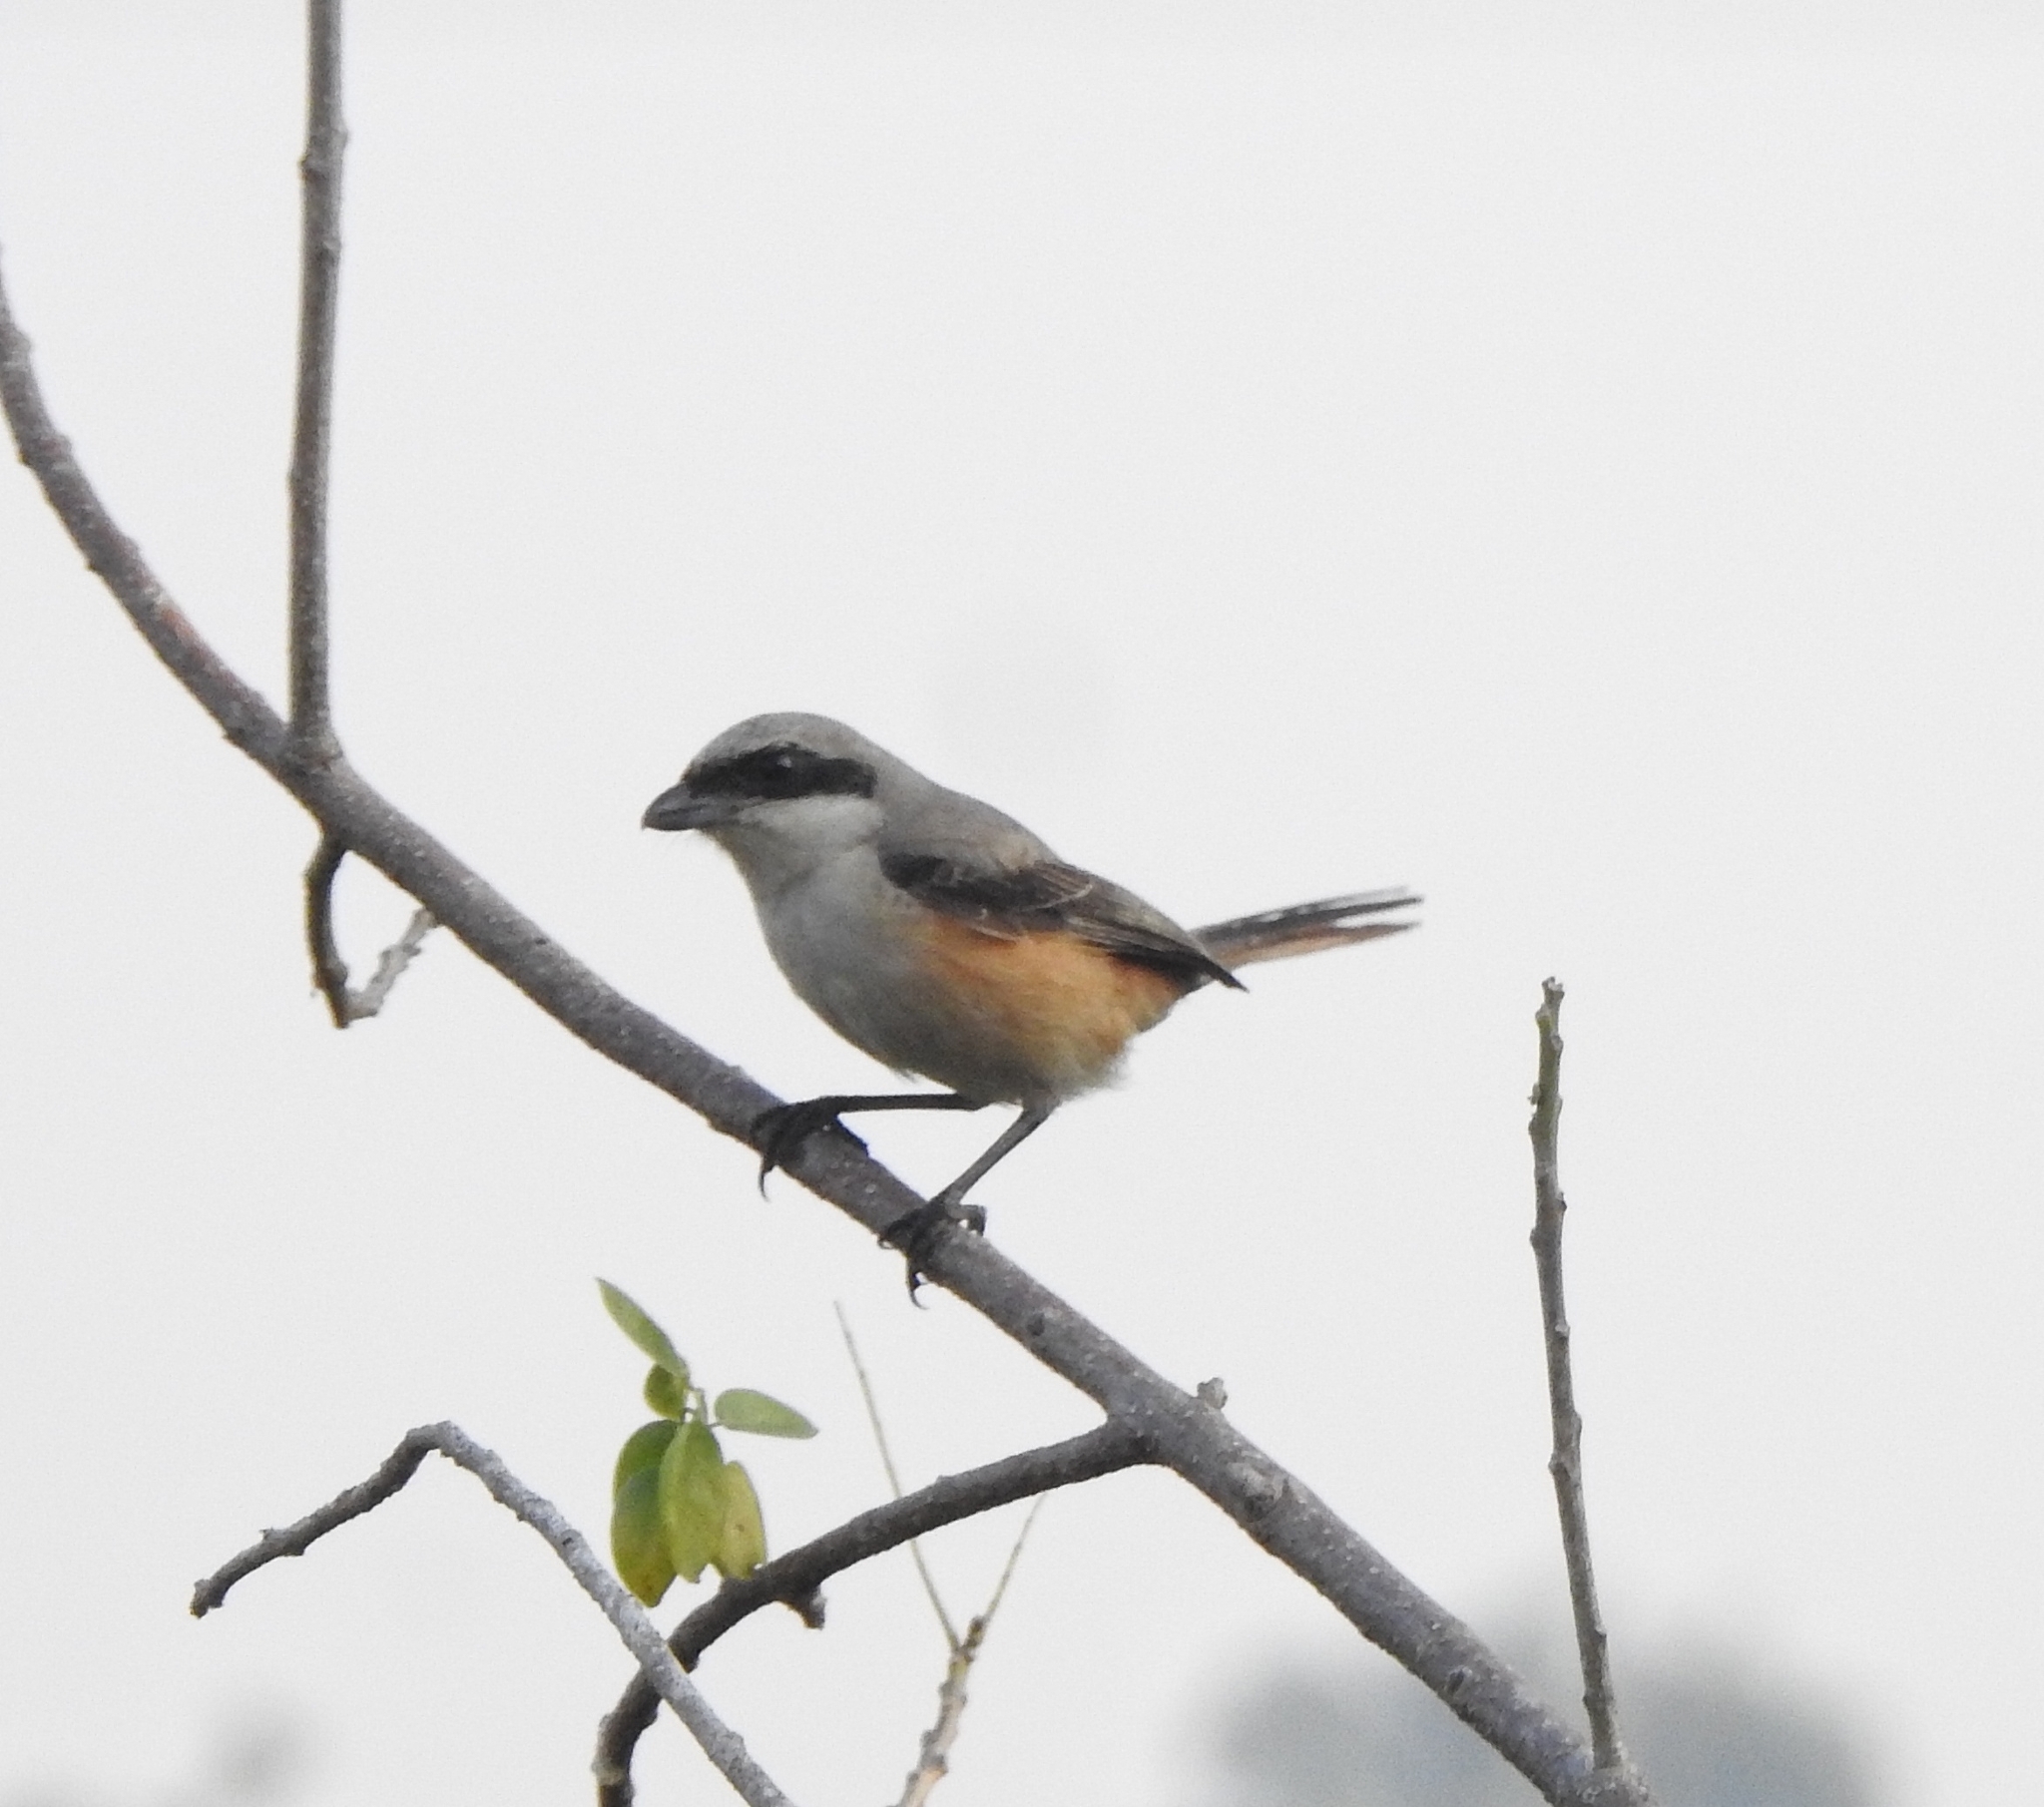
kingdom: Animalia
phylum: Chordata
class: Aves
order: Passeriformes
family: Laniidae
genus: Lanius
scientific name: Lanius schach
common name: Long-tailed shrike
